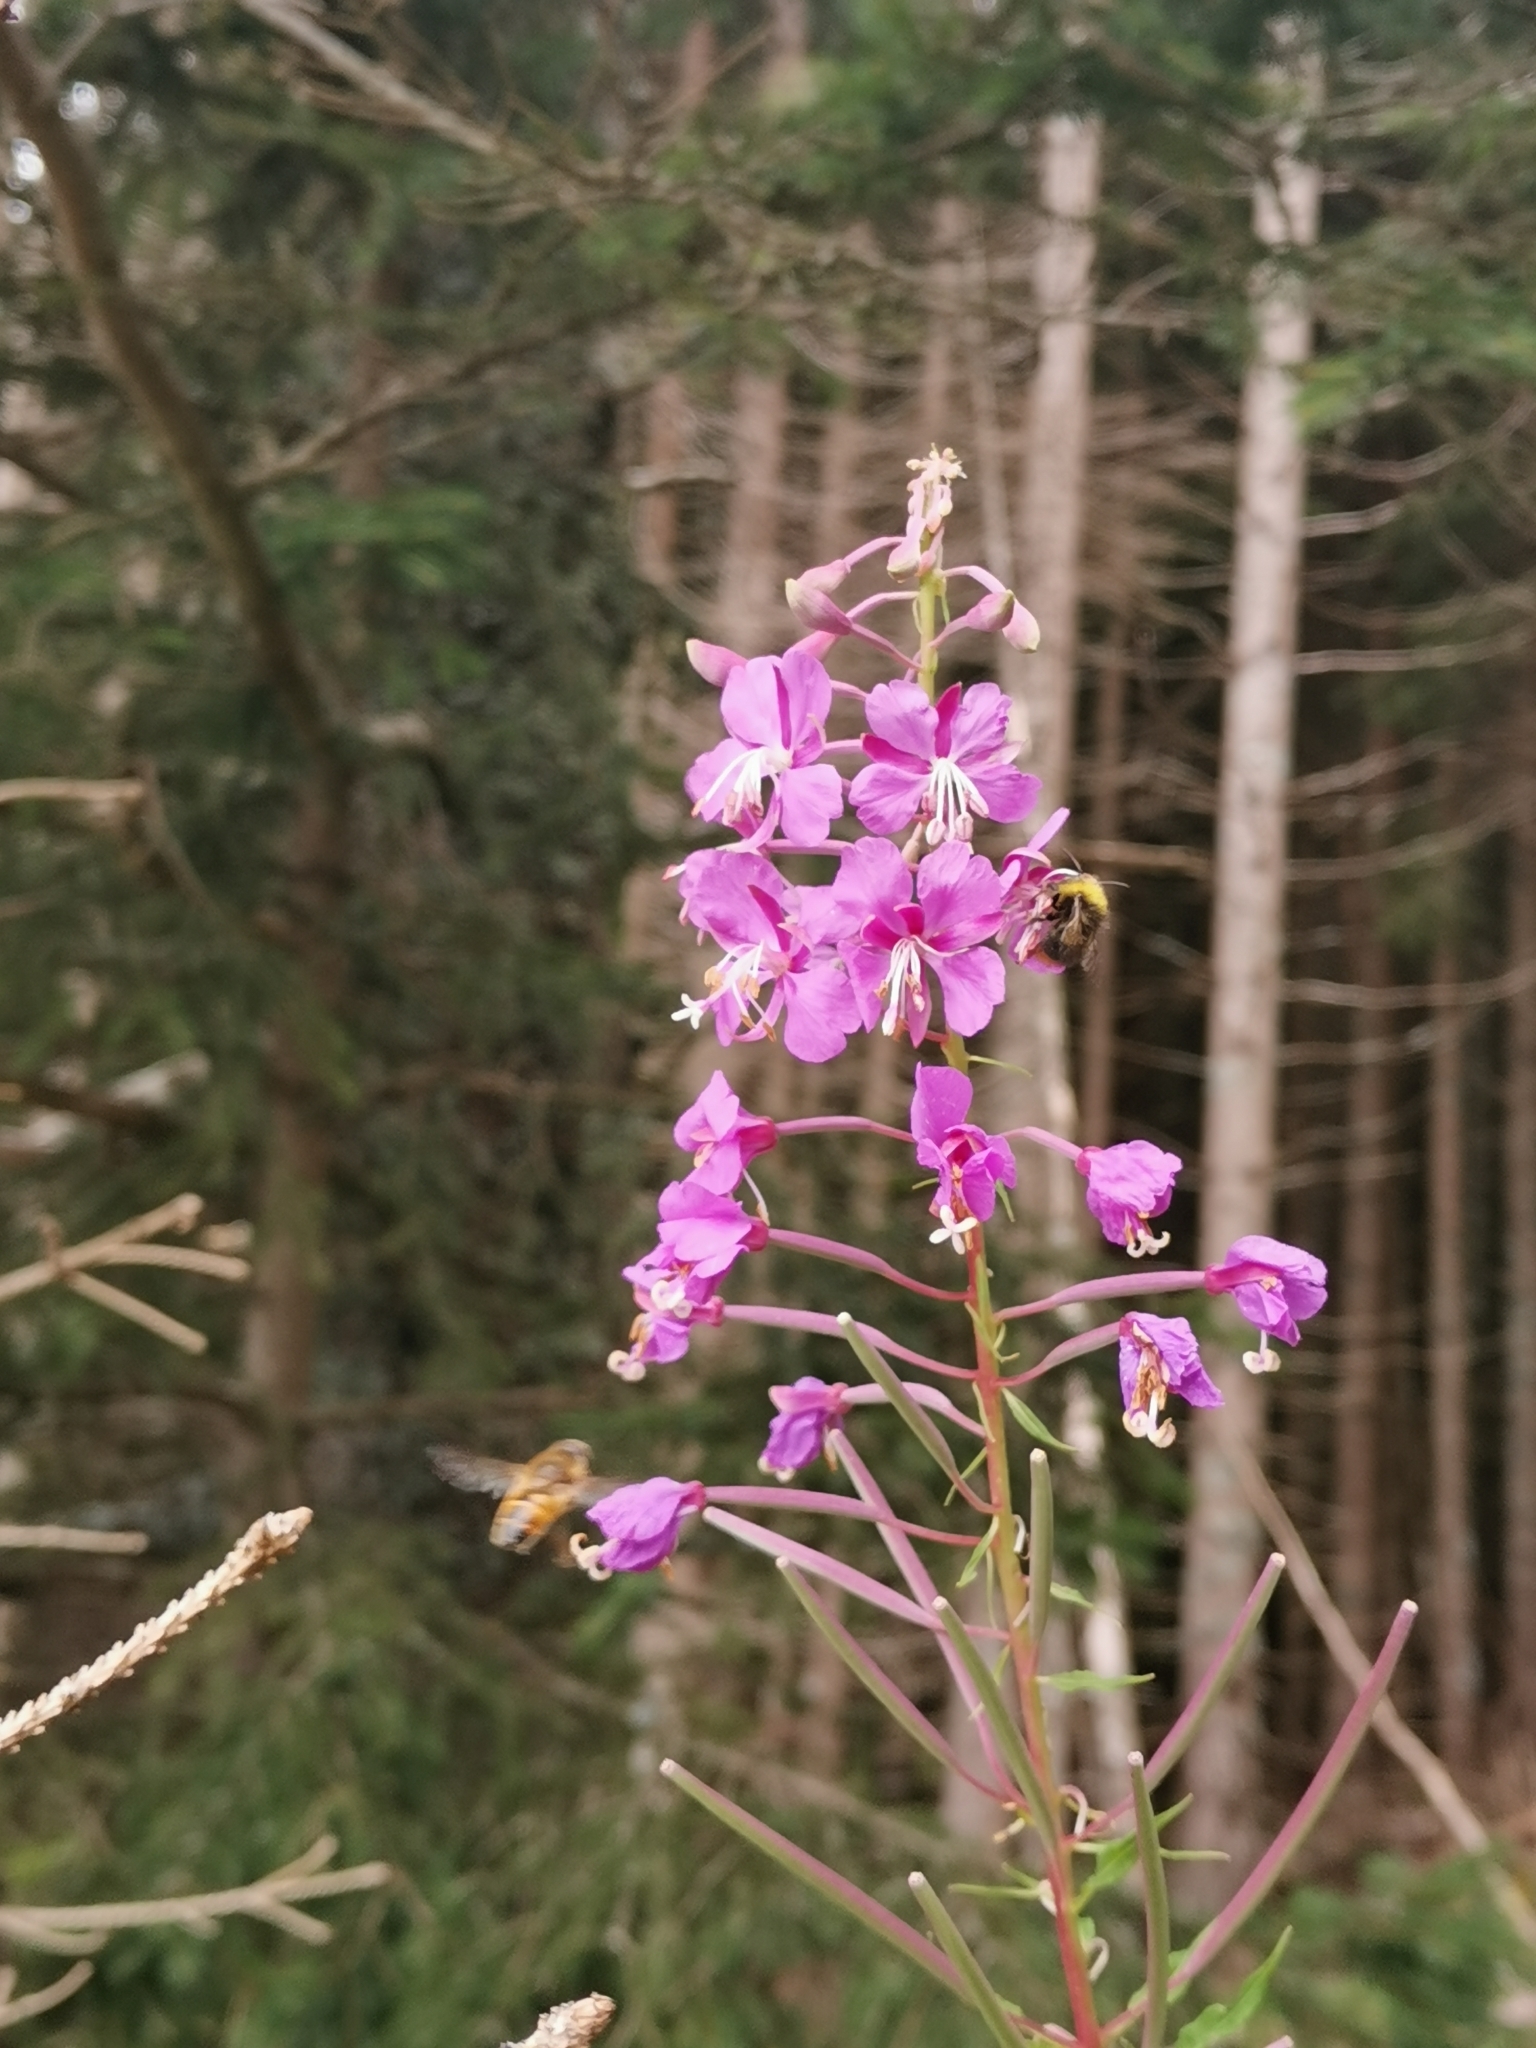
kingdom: Plantae
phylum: Tracheophyta
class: Magnoliopsida
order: Myrtales
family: Onagraceae
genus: Chamaenerion
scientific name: Chamaenerion angustifolium
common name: Fireweed
